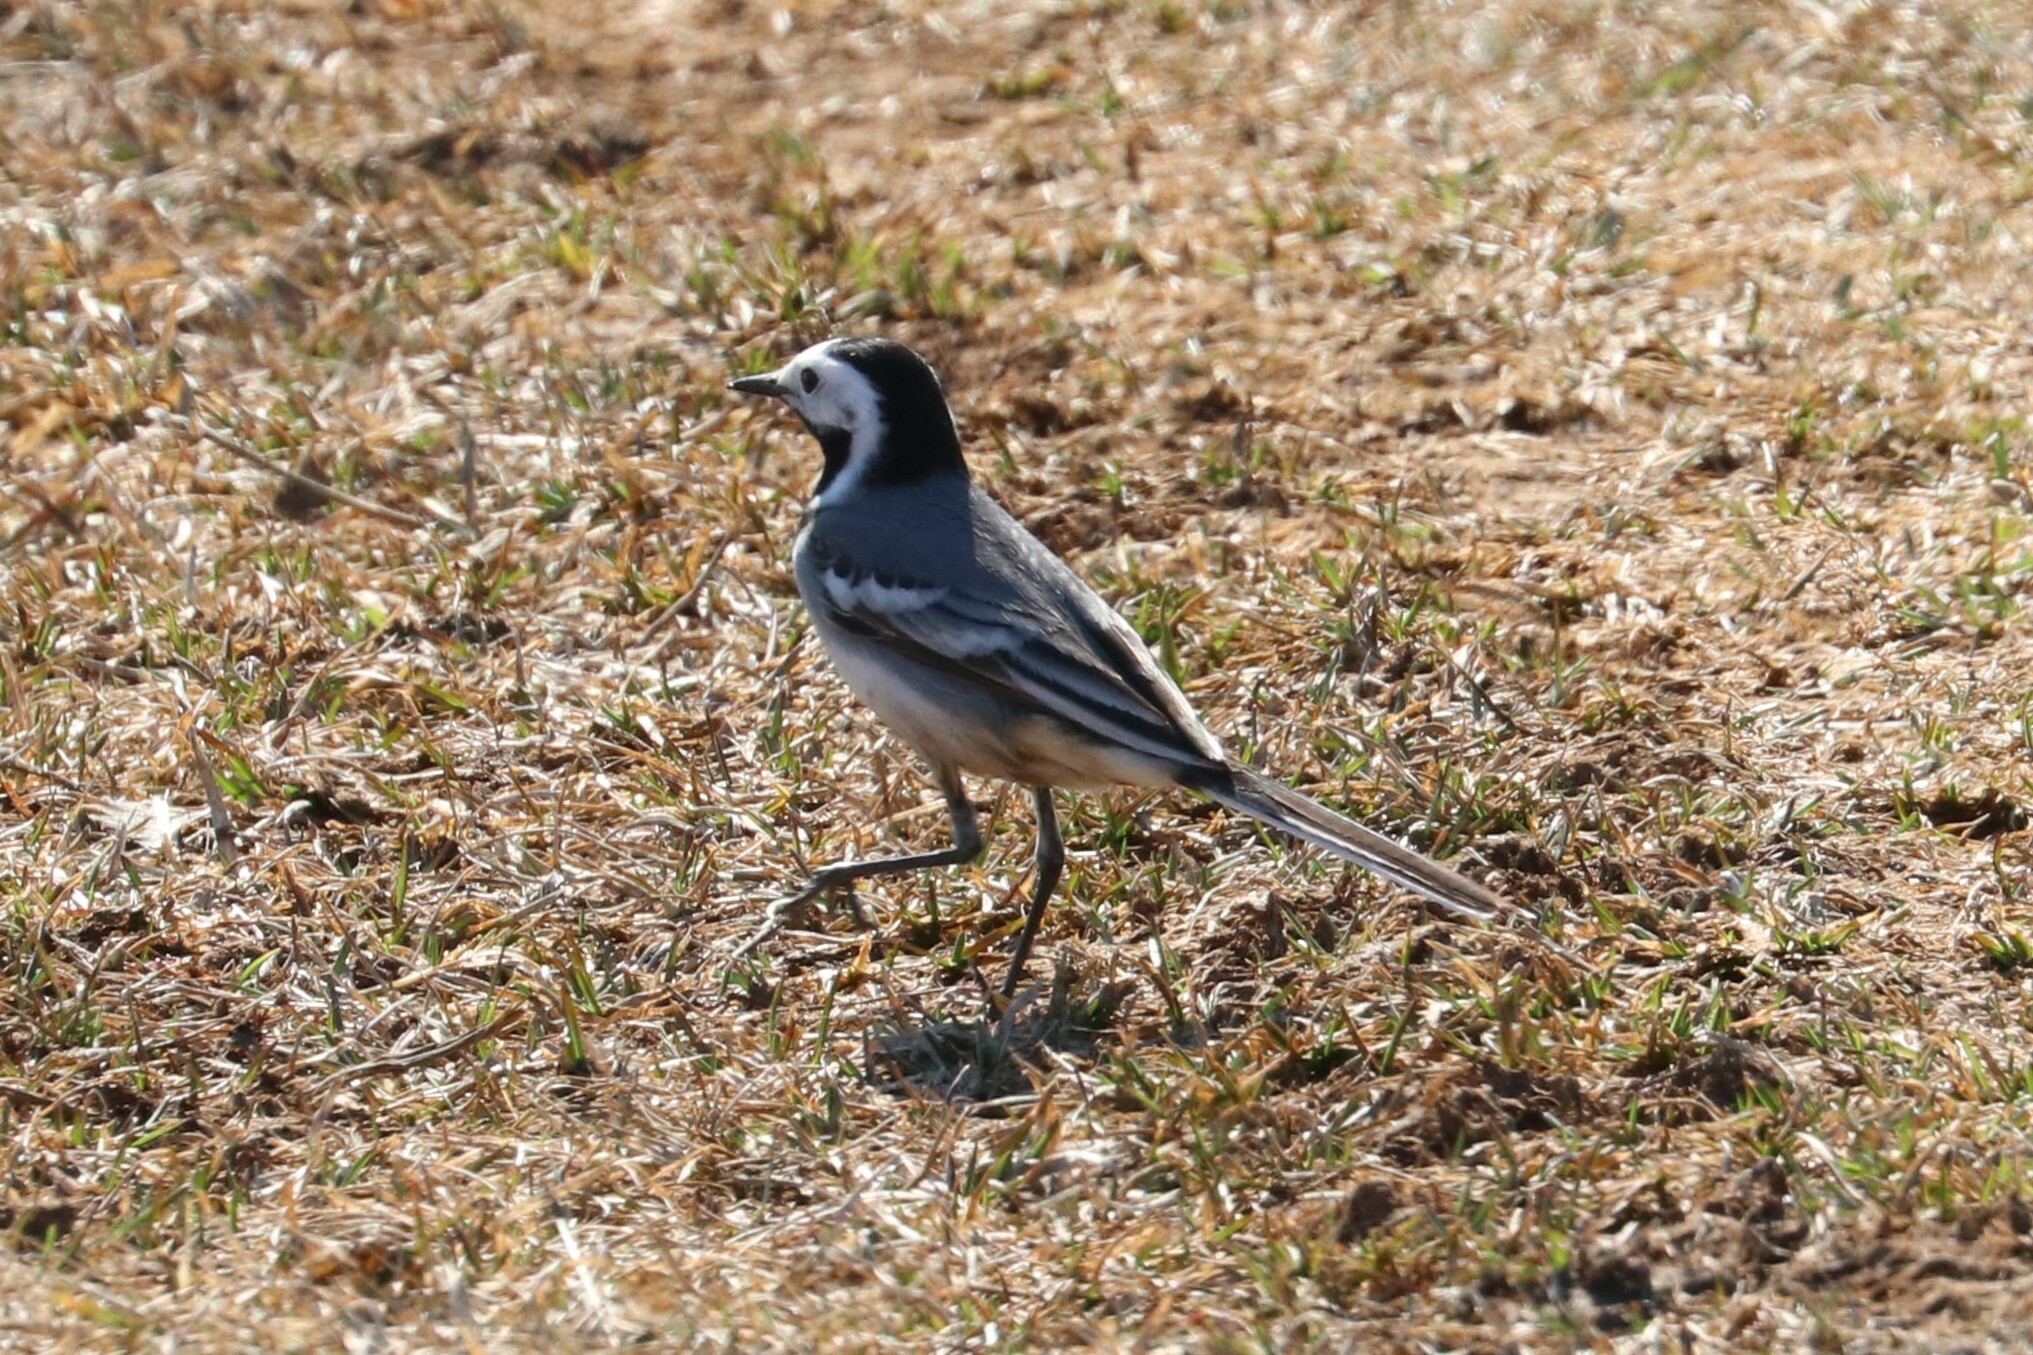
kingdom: Animalia
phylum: Chordata
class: Aves
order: Passeriformes
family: Motacillidae
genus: Motacilla
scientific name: Motacilla alba
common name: White wagtail
